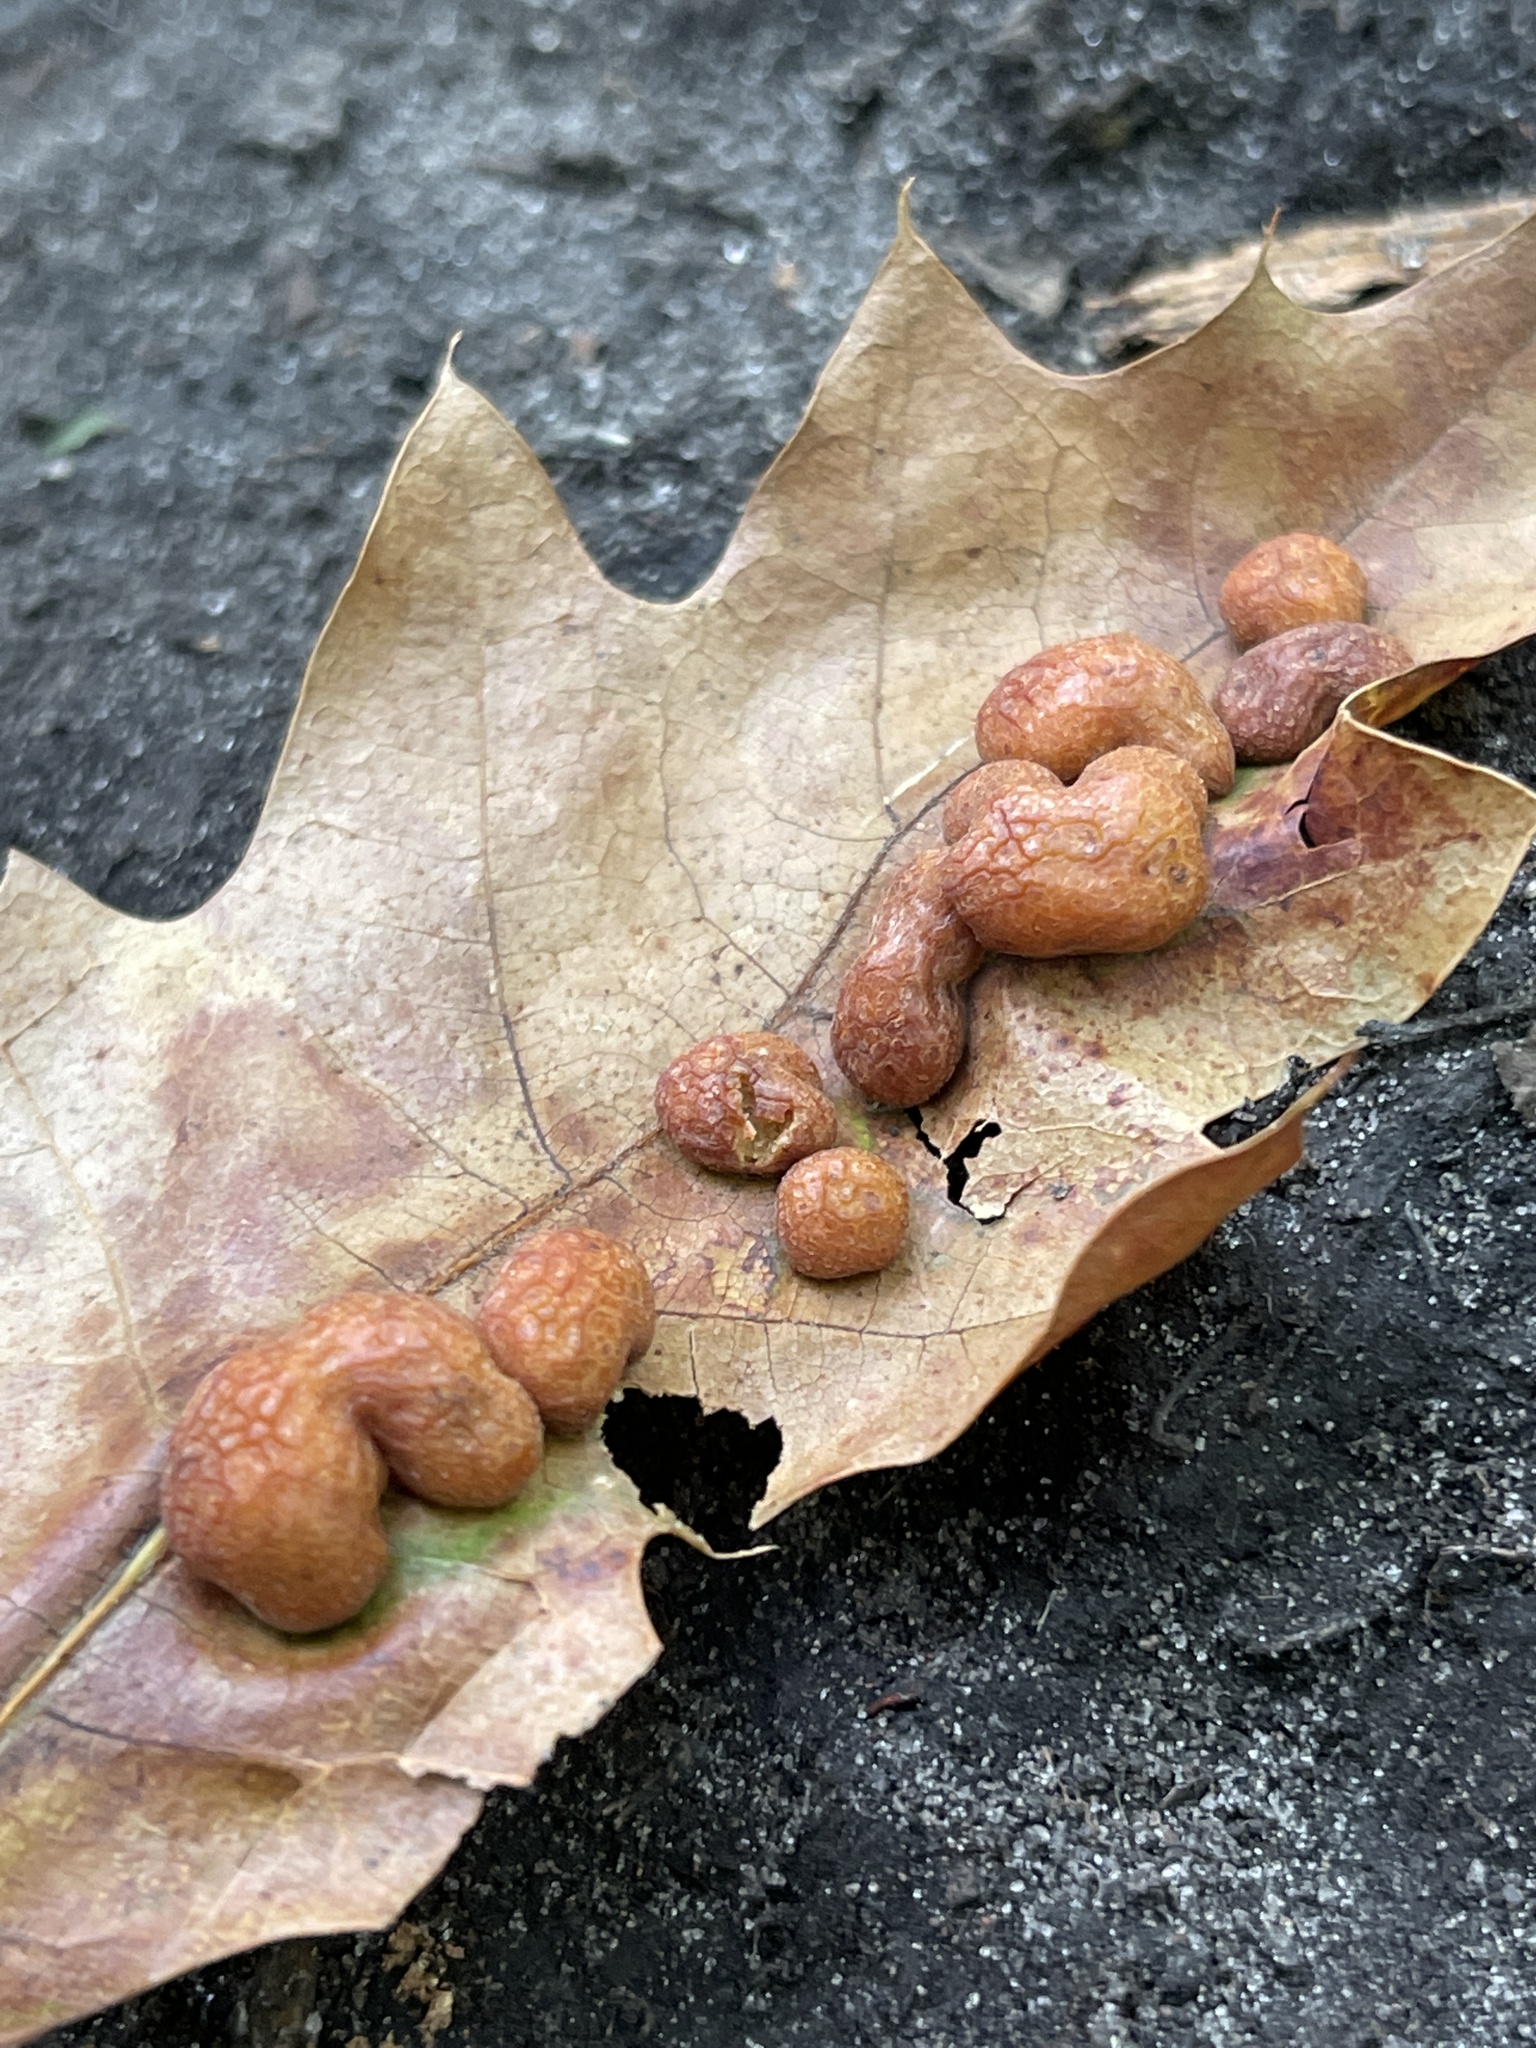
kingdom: Animalia
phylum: Arthropoda
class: Insecta
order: Diptera
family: Cecidomyiidae
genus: Polystepha
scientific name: Polystepha pilulae
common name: Oak leaf gall midge
